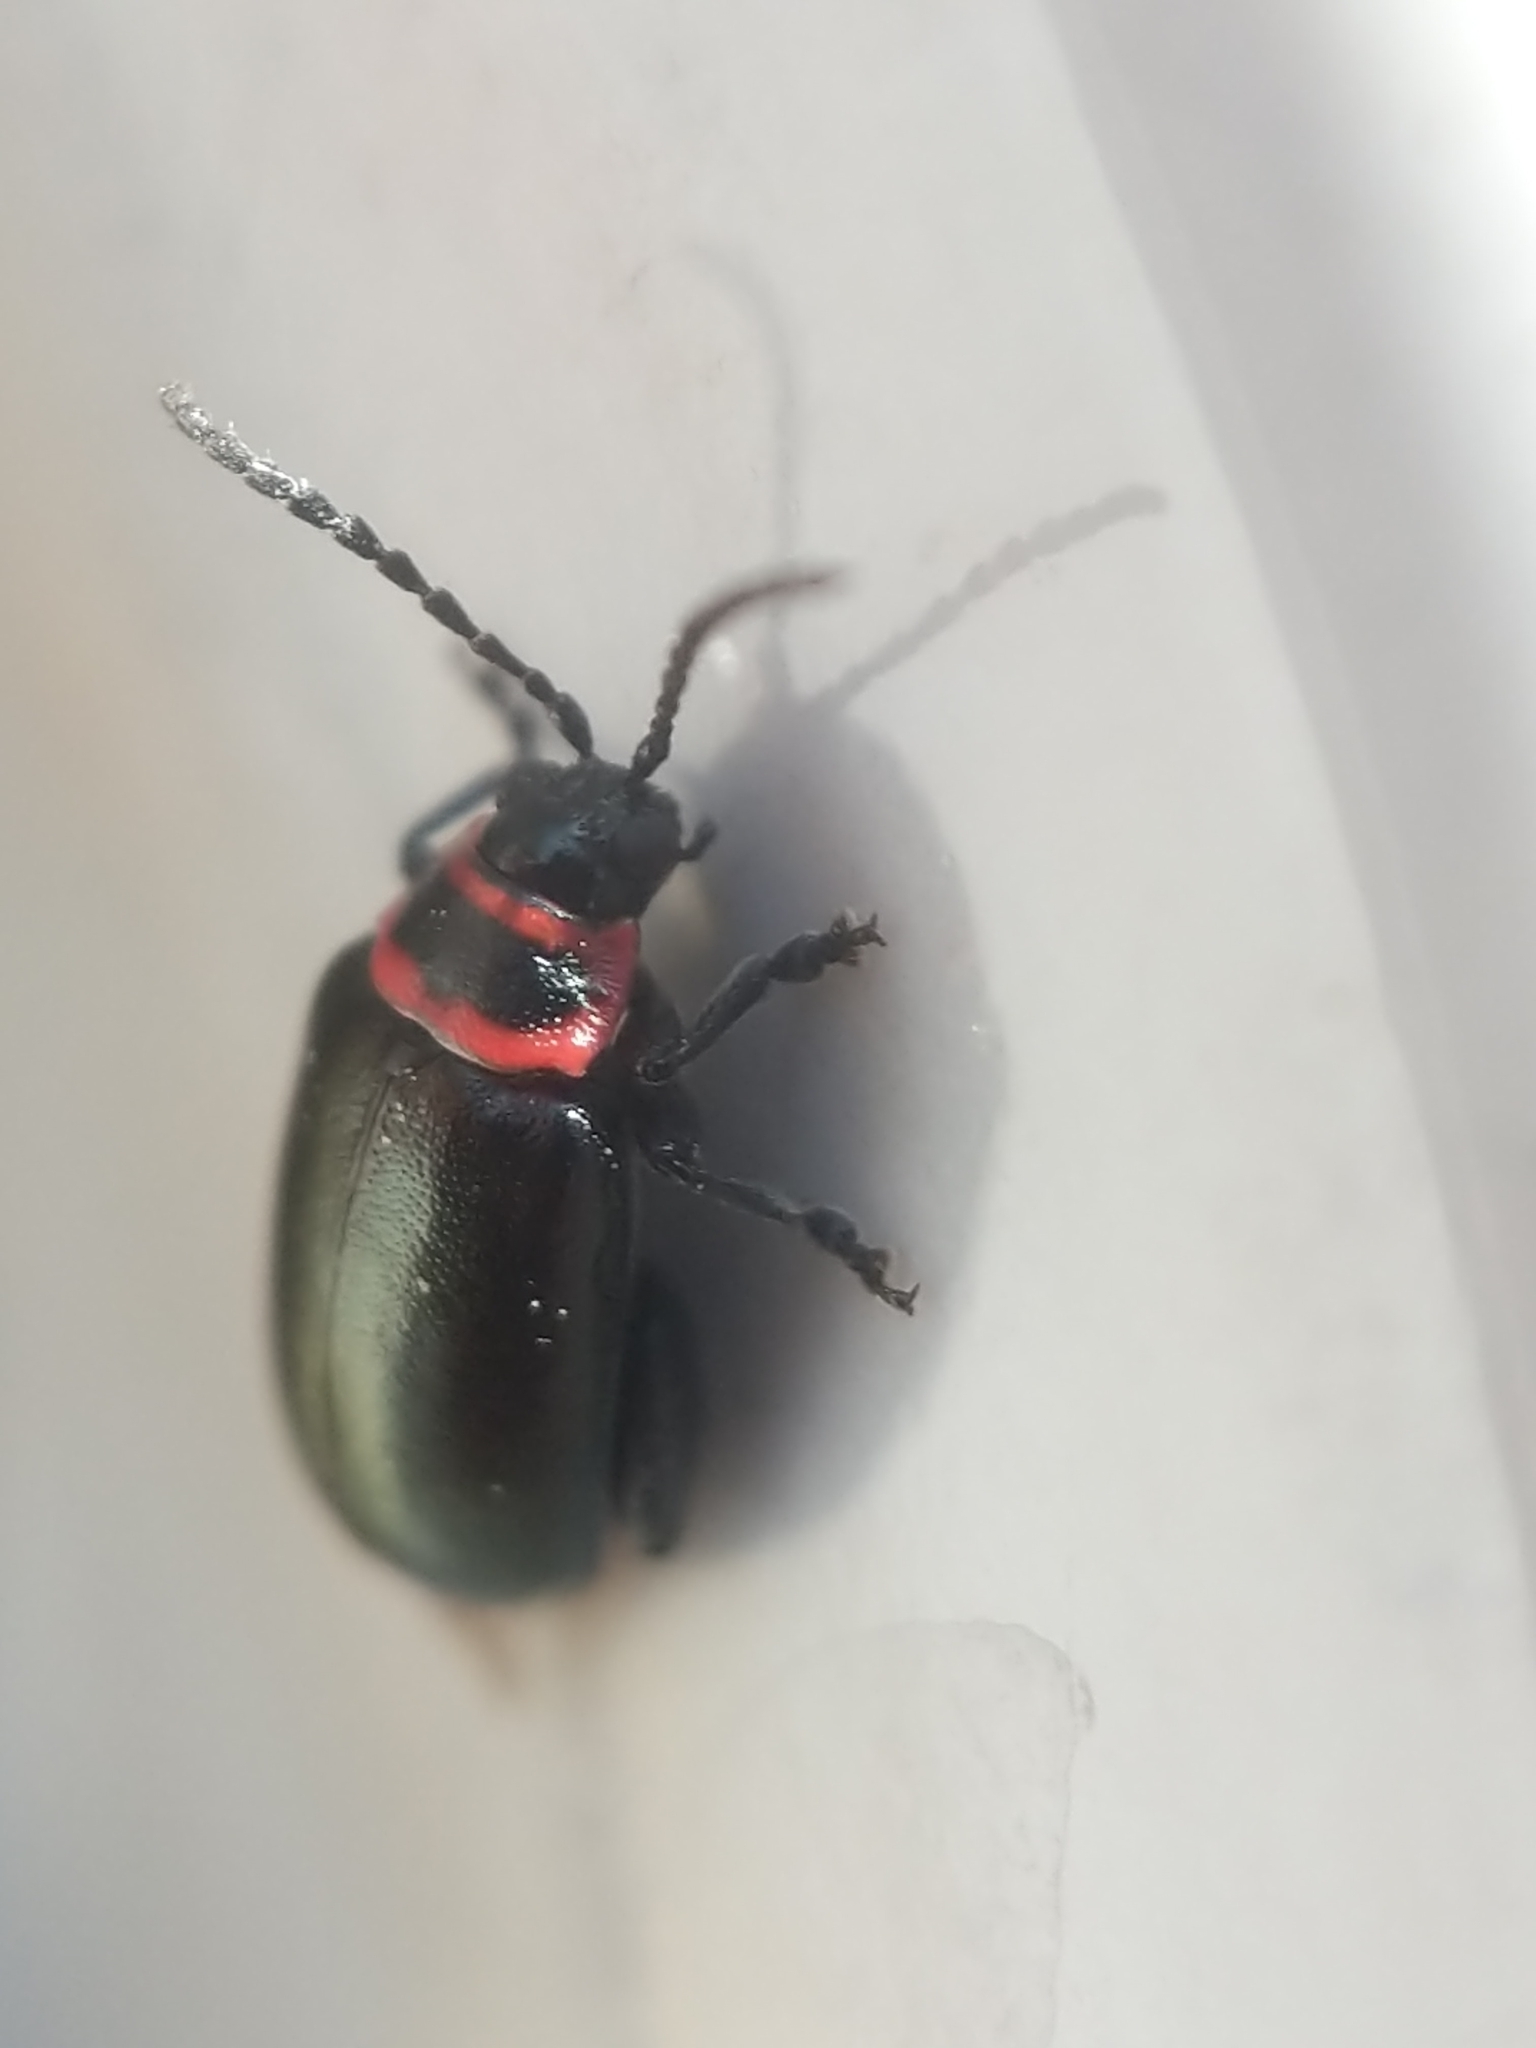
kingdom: Animalia
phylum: Arthropoda
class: Insecta
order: Coleoptera
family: Chrysomelidae
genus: Kuschelina
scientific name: Kuschelina vians
